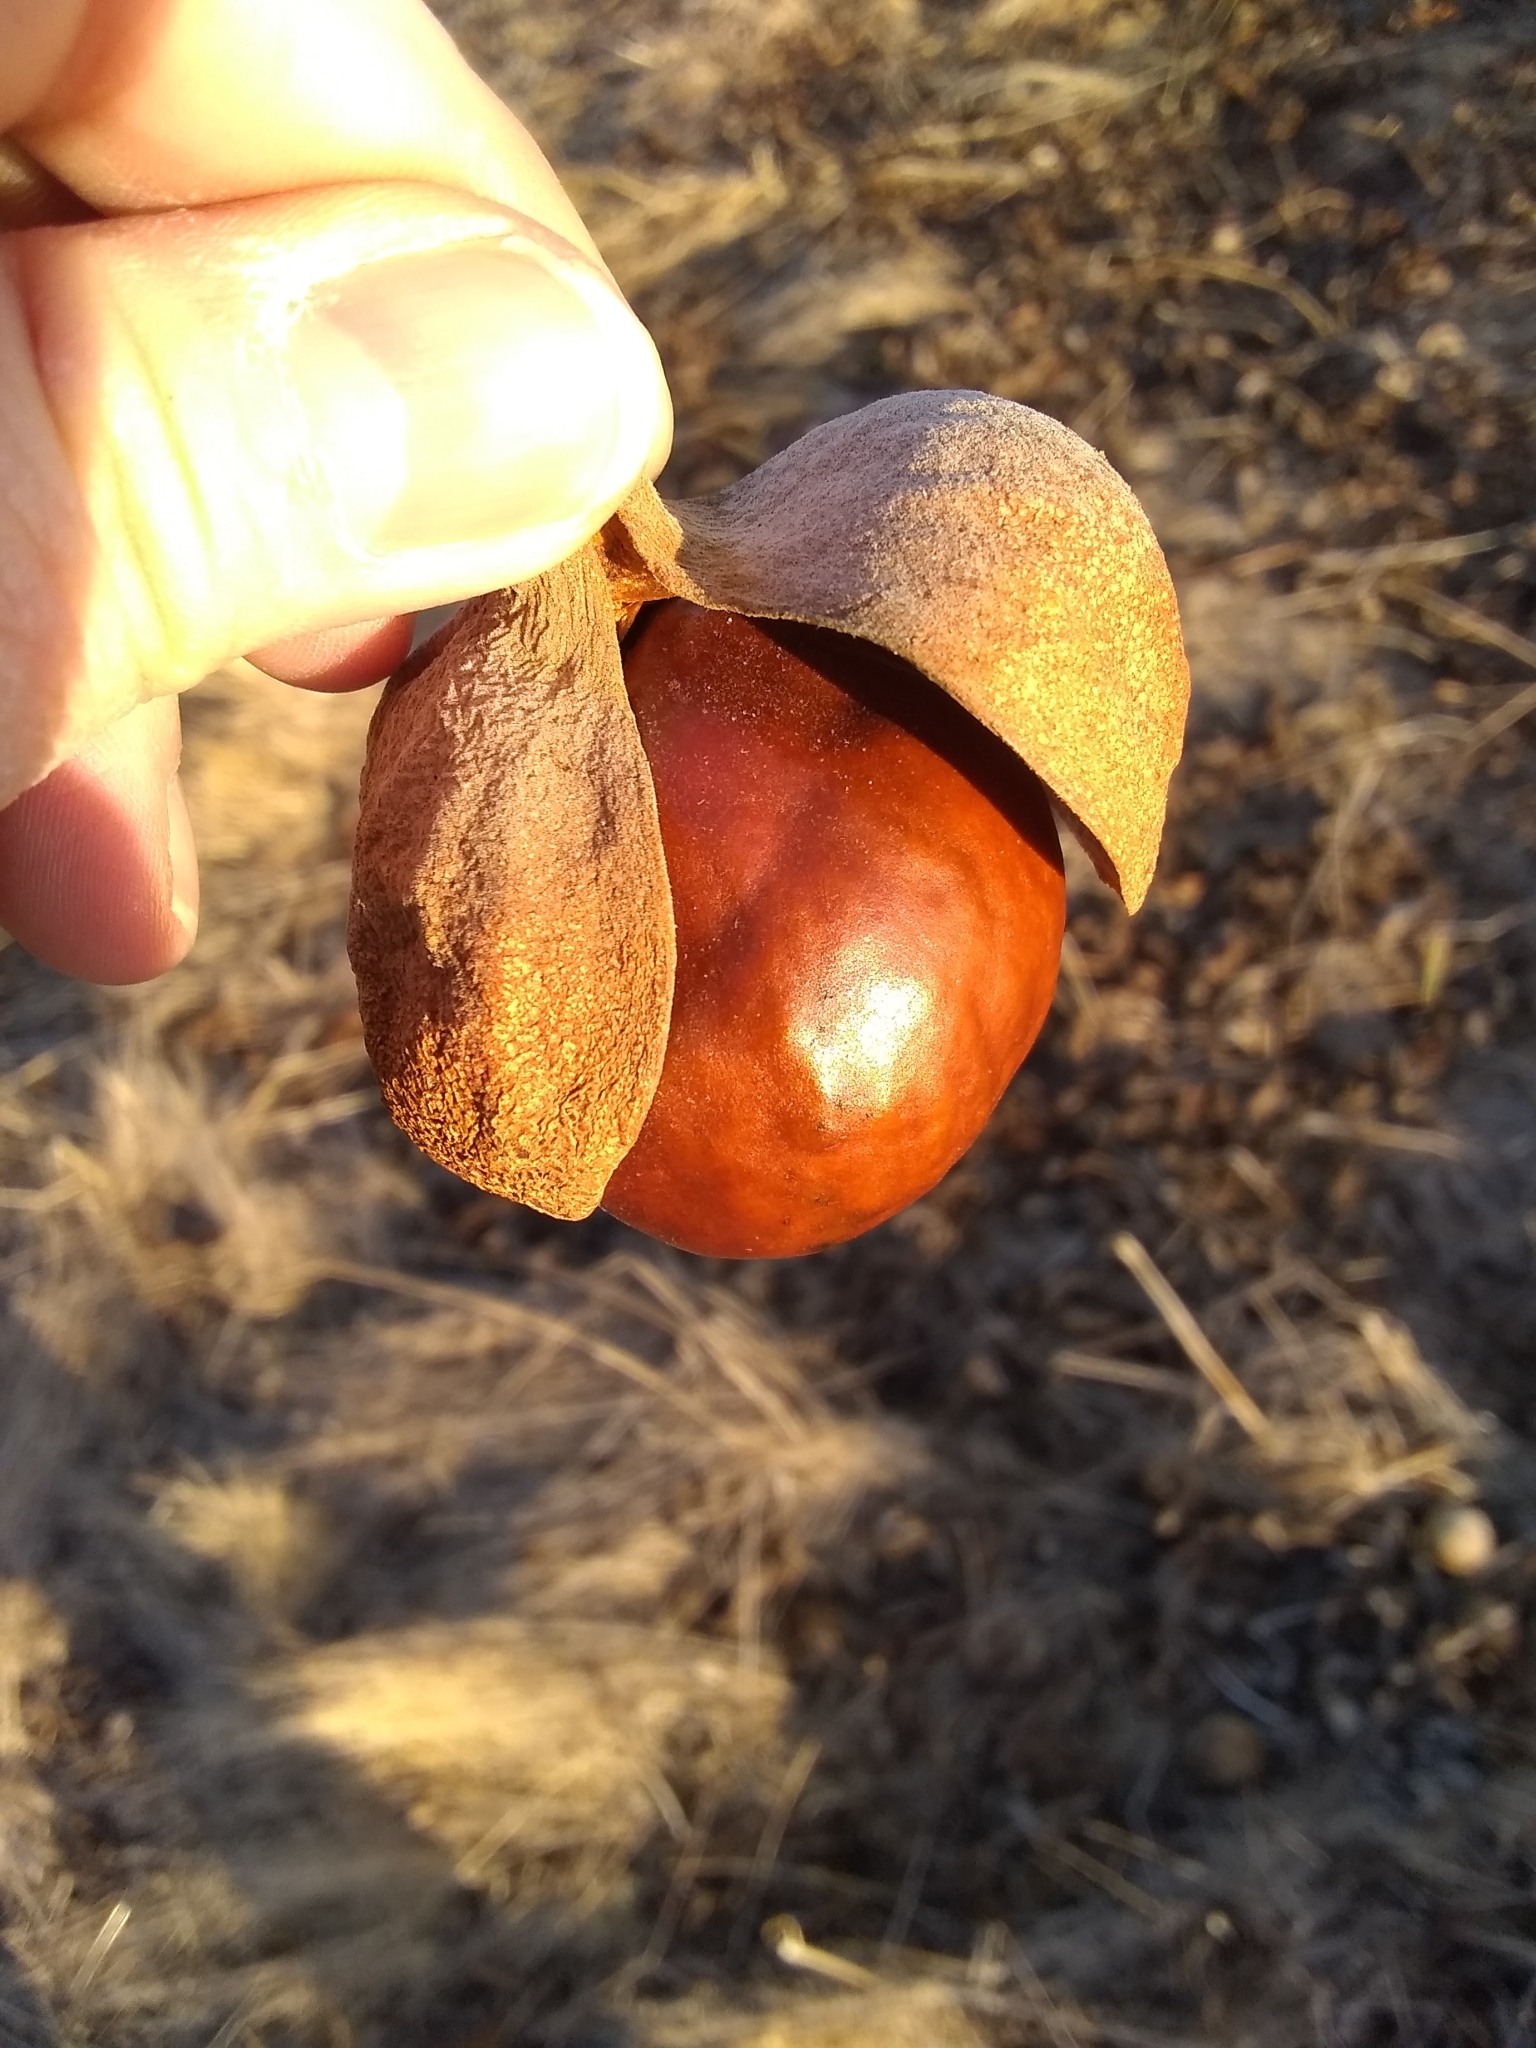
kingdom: Plantae
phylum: Tracheophyta
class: Magnoliopsida
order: Sapindales
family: Sapindaceae
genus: Aesculus
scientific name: Aesculus californica
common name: California buckeye
